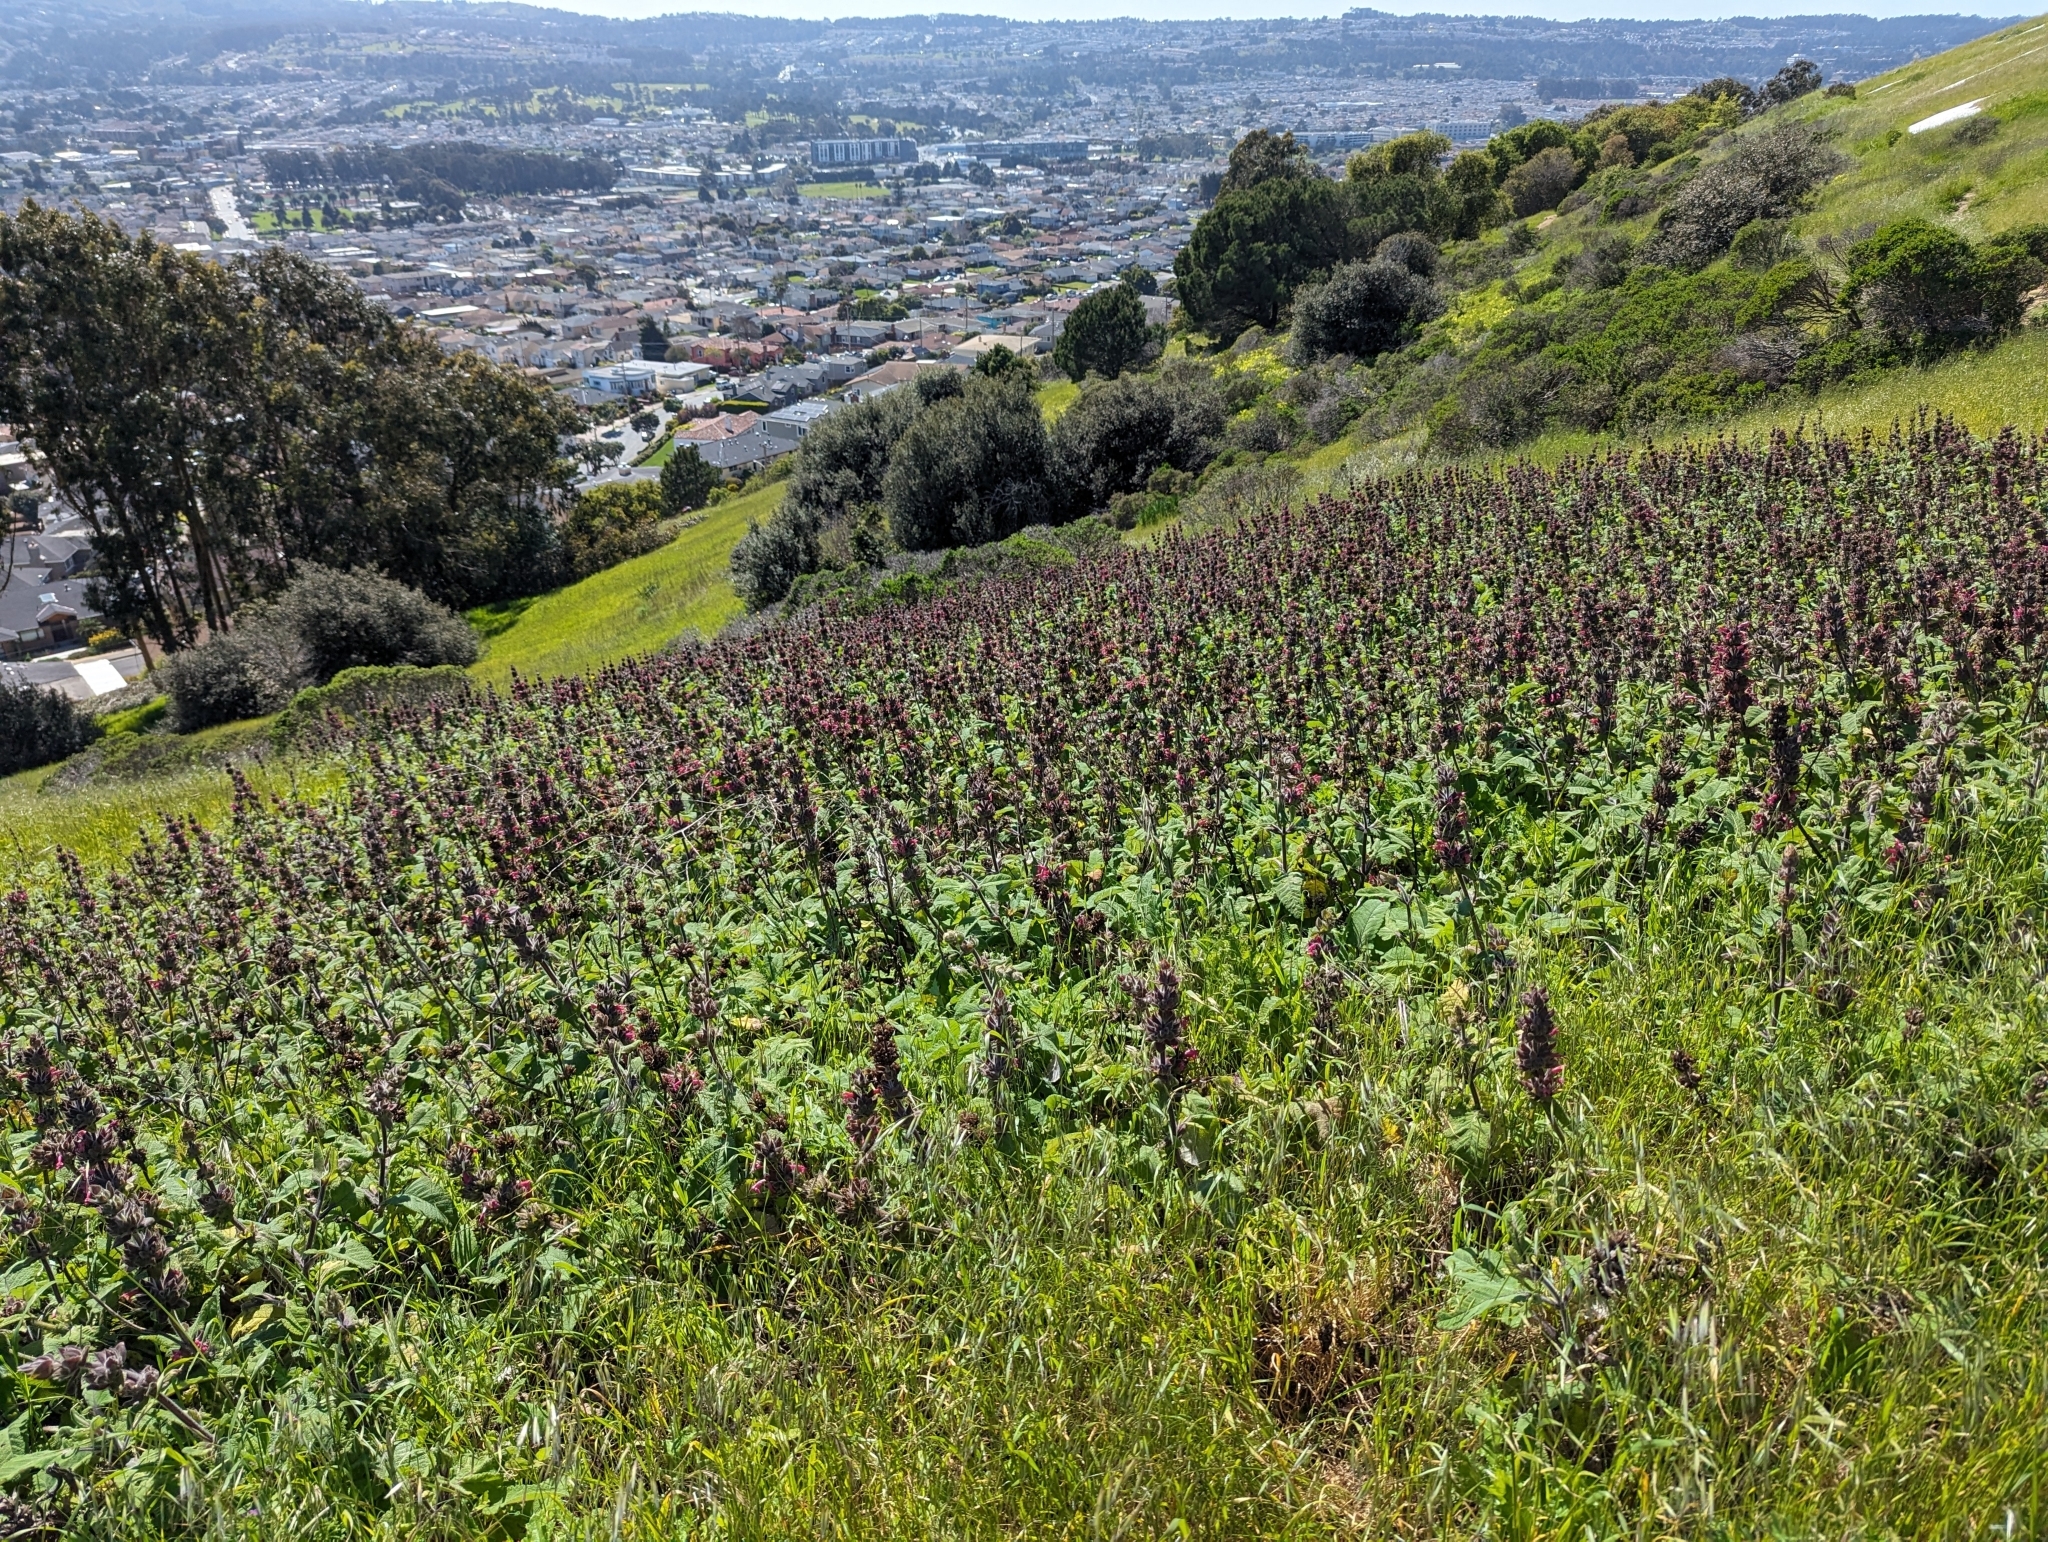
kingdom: Plantae
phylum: Tracheophyta
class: Magnoliopsida
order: Lamiales
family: Lamiaceae
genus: Salvia
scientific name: Salvia spathacea
